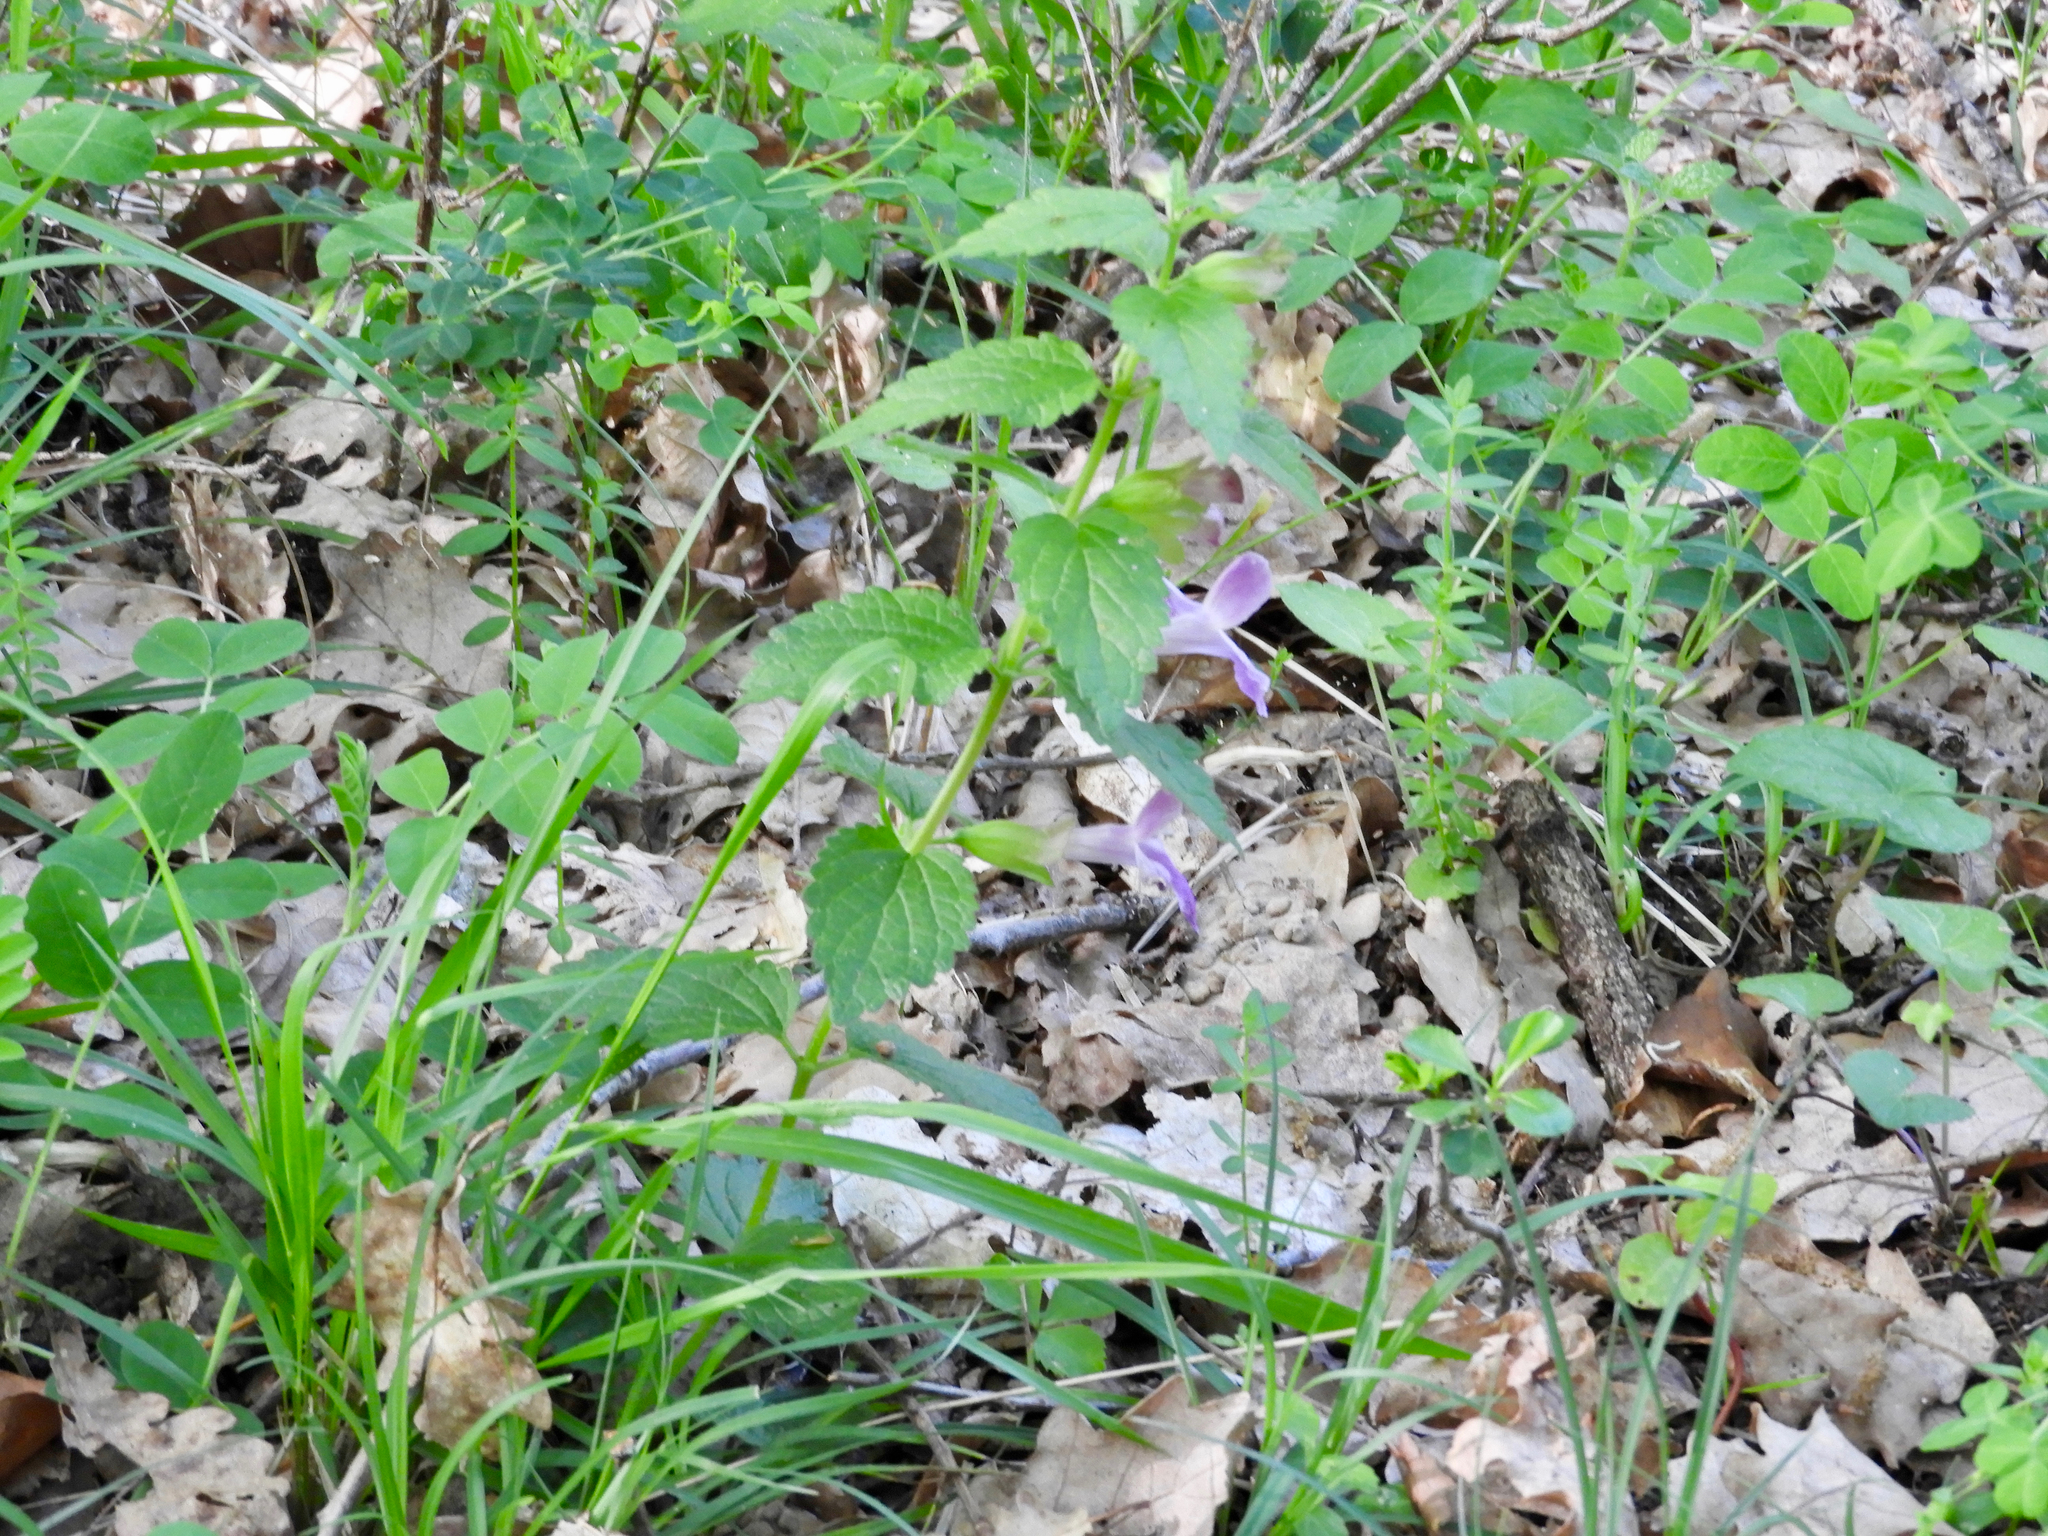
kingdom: Plantae
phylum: Tracheophyta
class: Magnoliopsida
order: Lamiales
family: Lamiaceae
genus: Melittis
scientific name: Melittis melissophyllum
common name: Bastard balm
